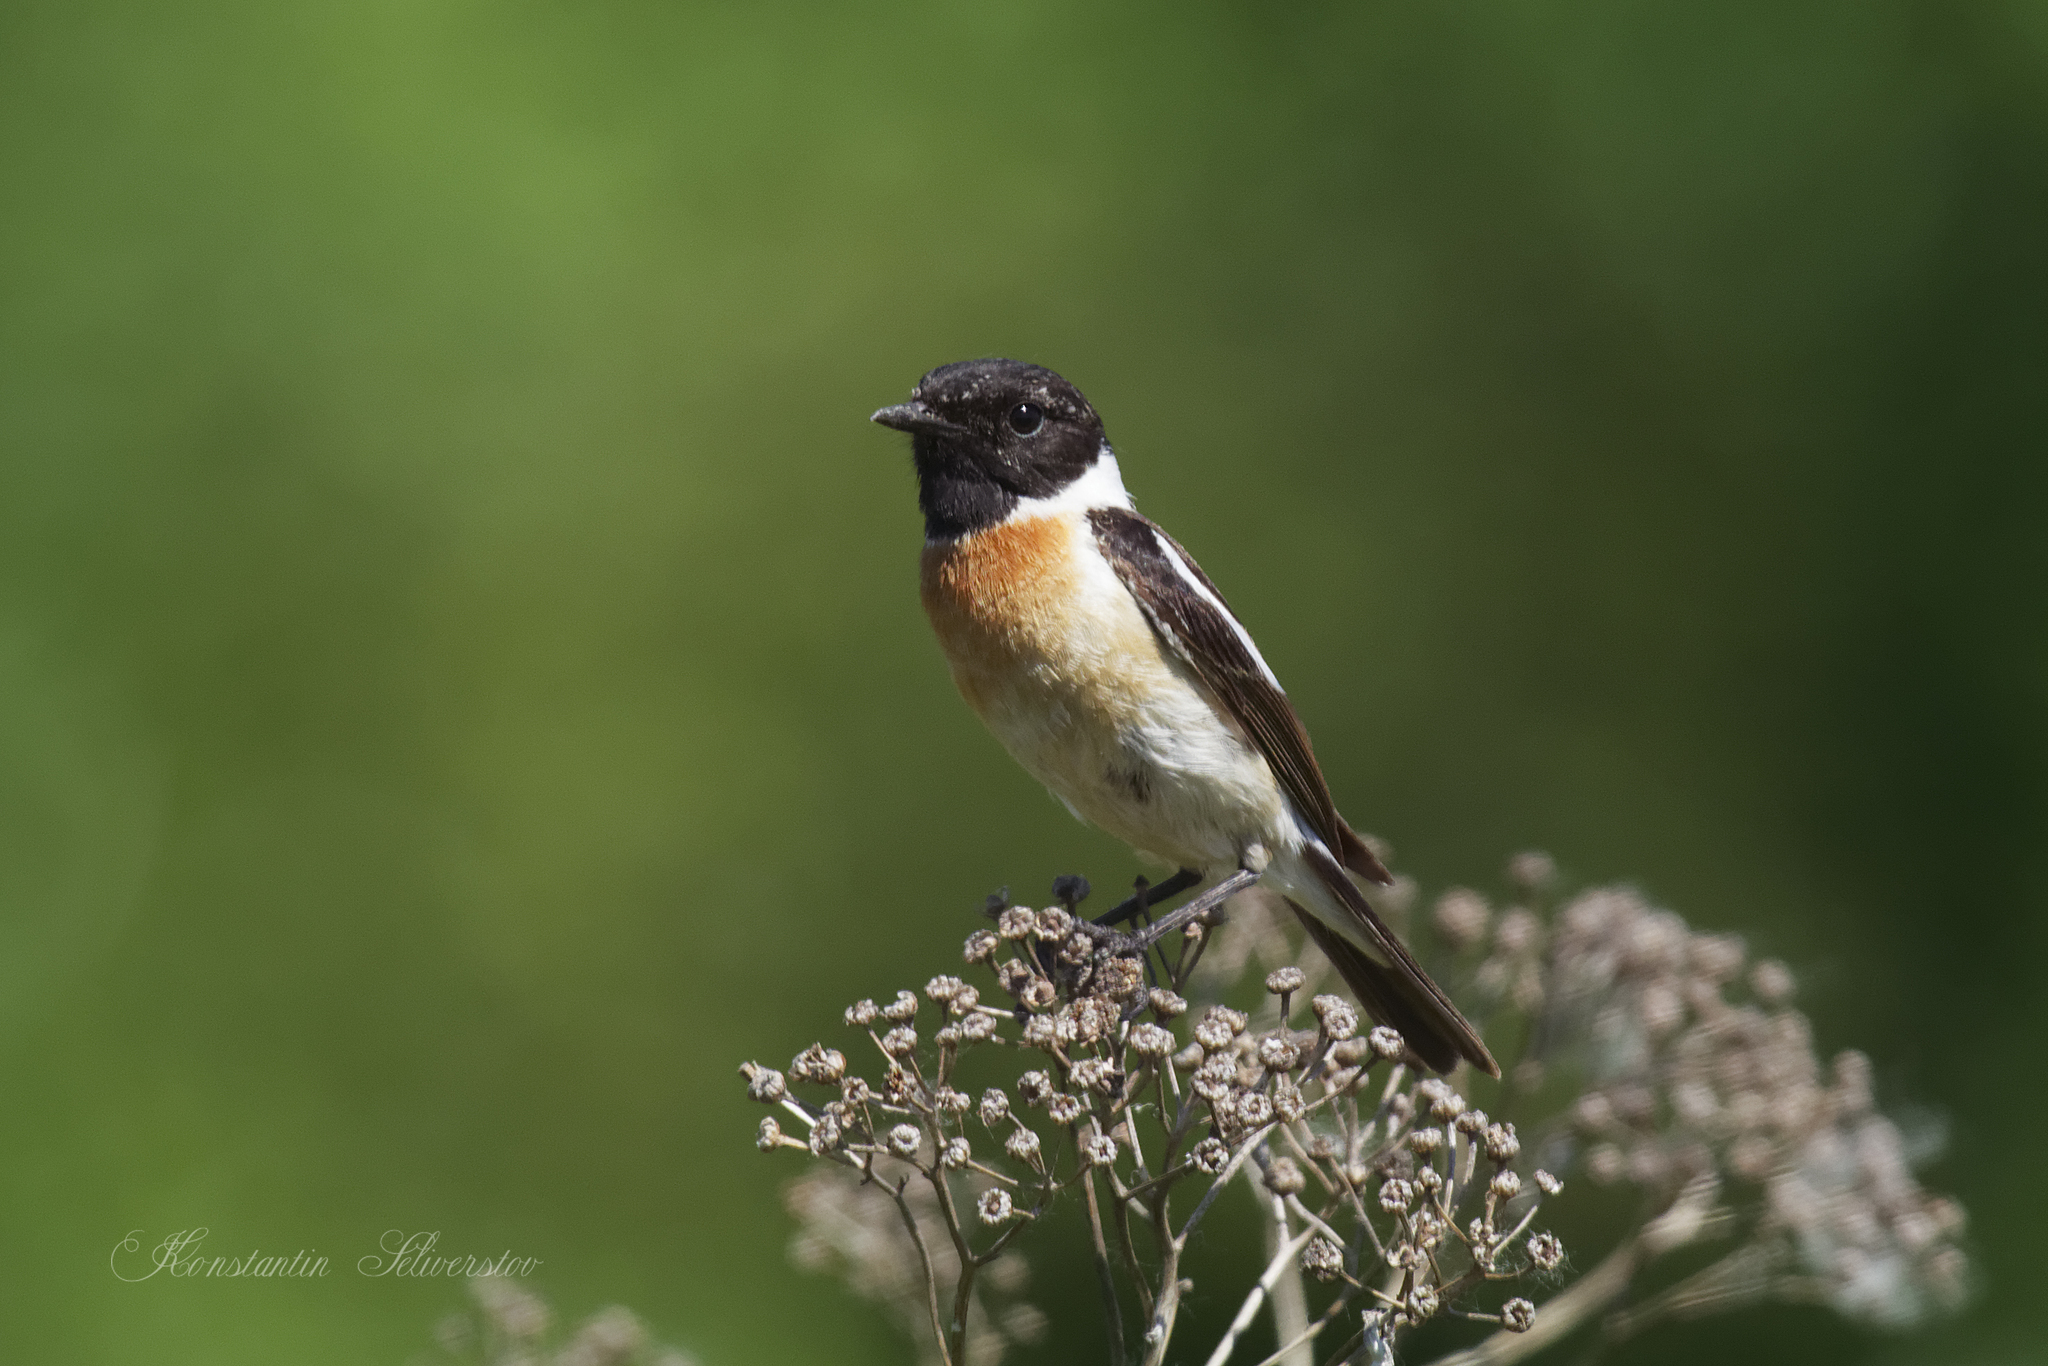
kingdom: Animalia
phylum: Chordata
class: Aves
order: Passeriformes
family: Muscicapidae
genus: Saxicola
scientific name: Saxicola maurus
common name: Siberian stonechat
